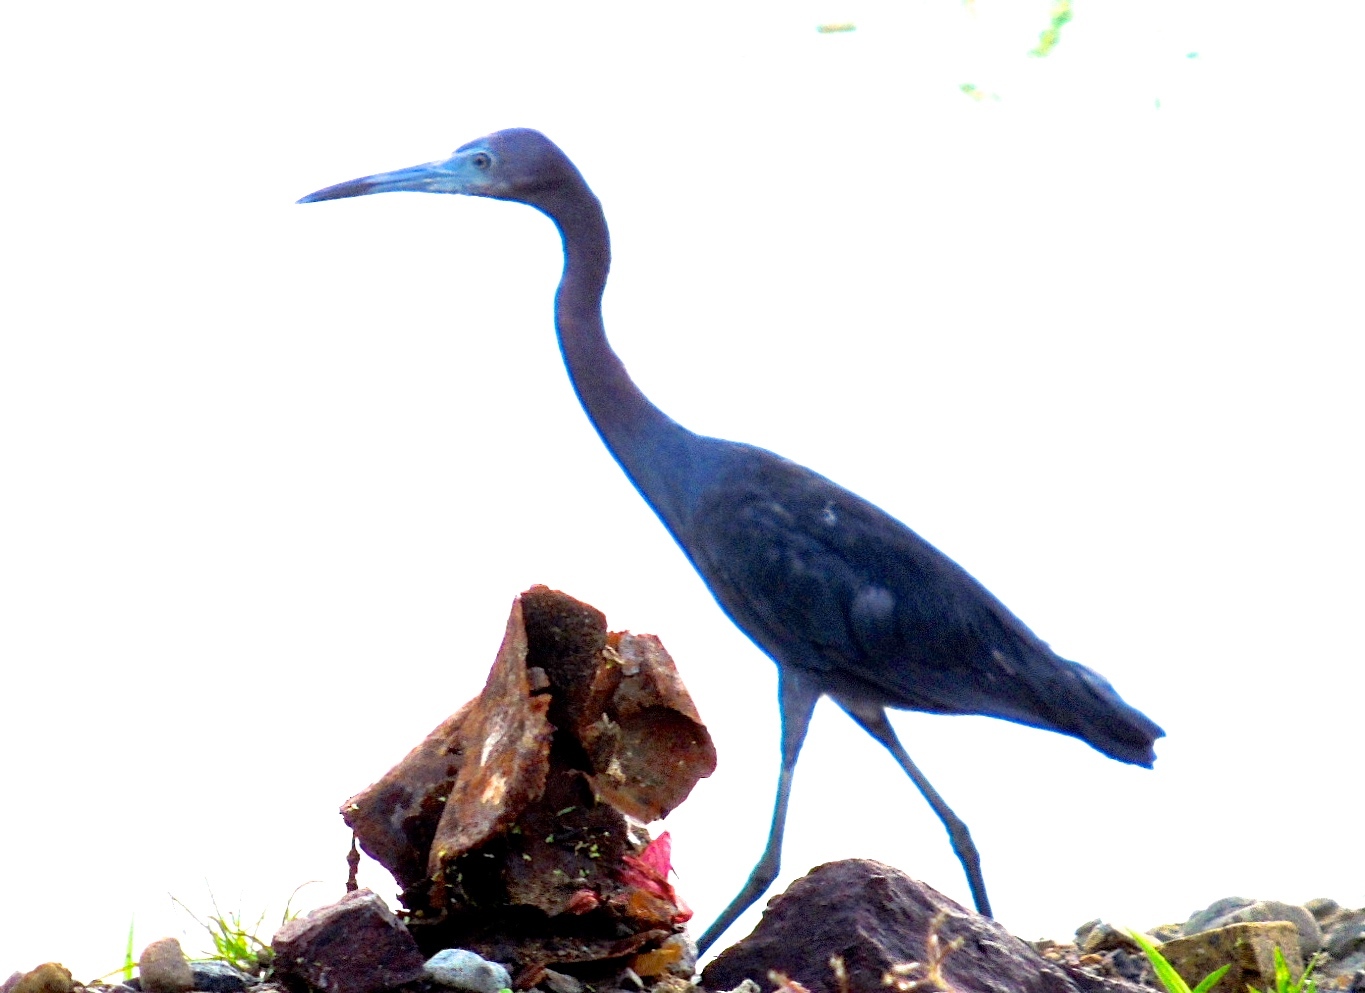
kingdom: Animalia
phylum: Chordata
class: Aves
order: Pelecaniformes
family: Ardeidae
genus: Egretta
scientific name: Egretta caerulea
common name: Little blue heron
